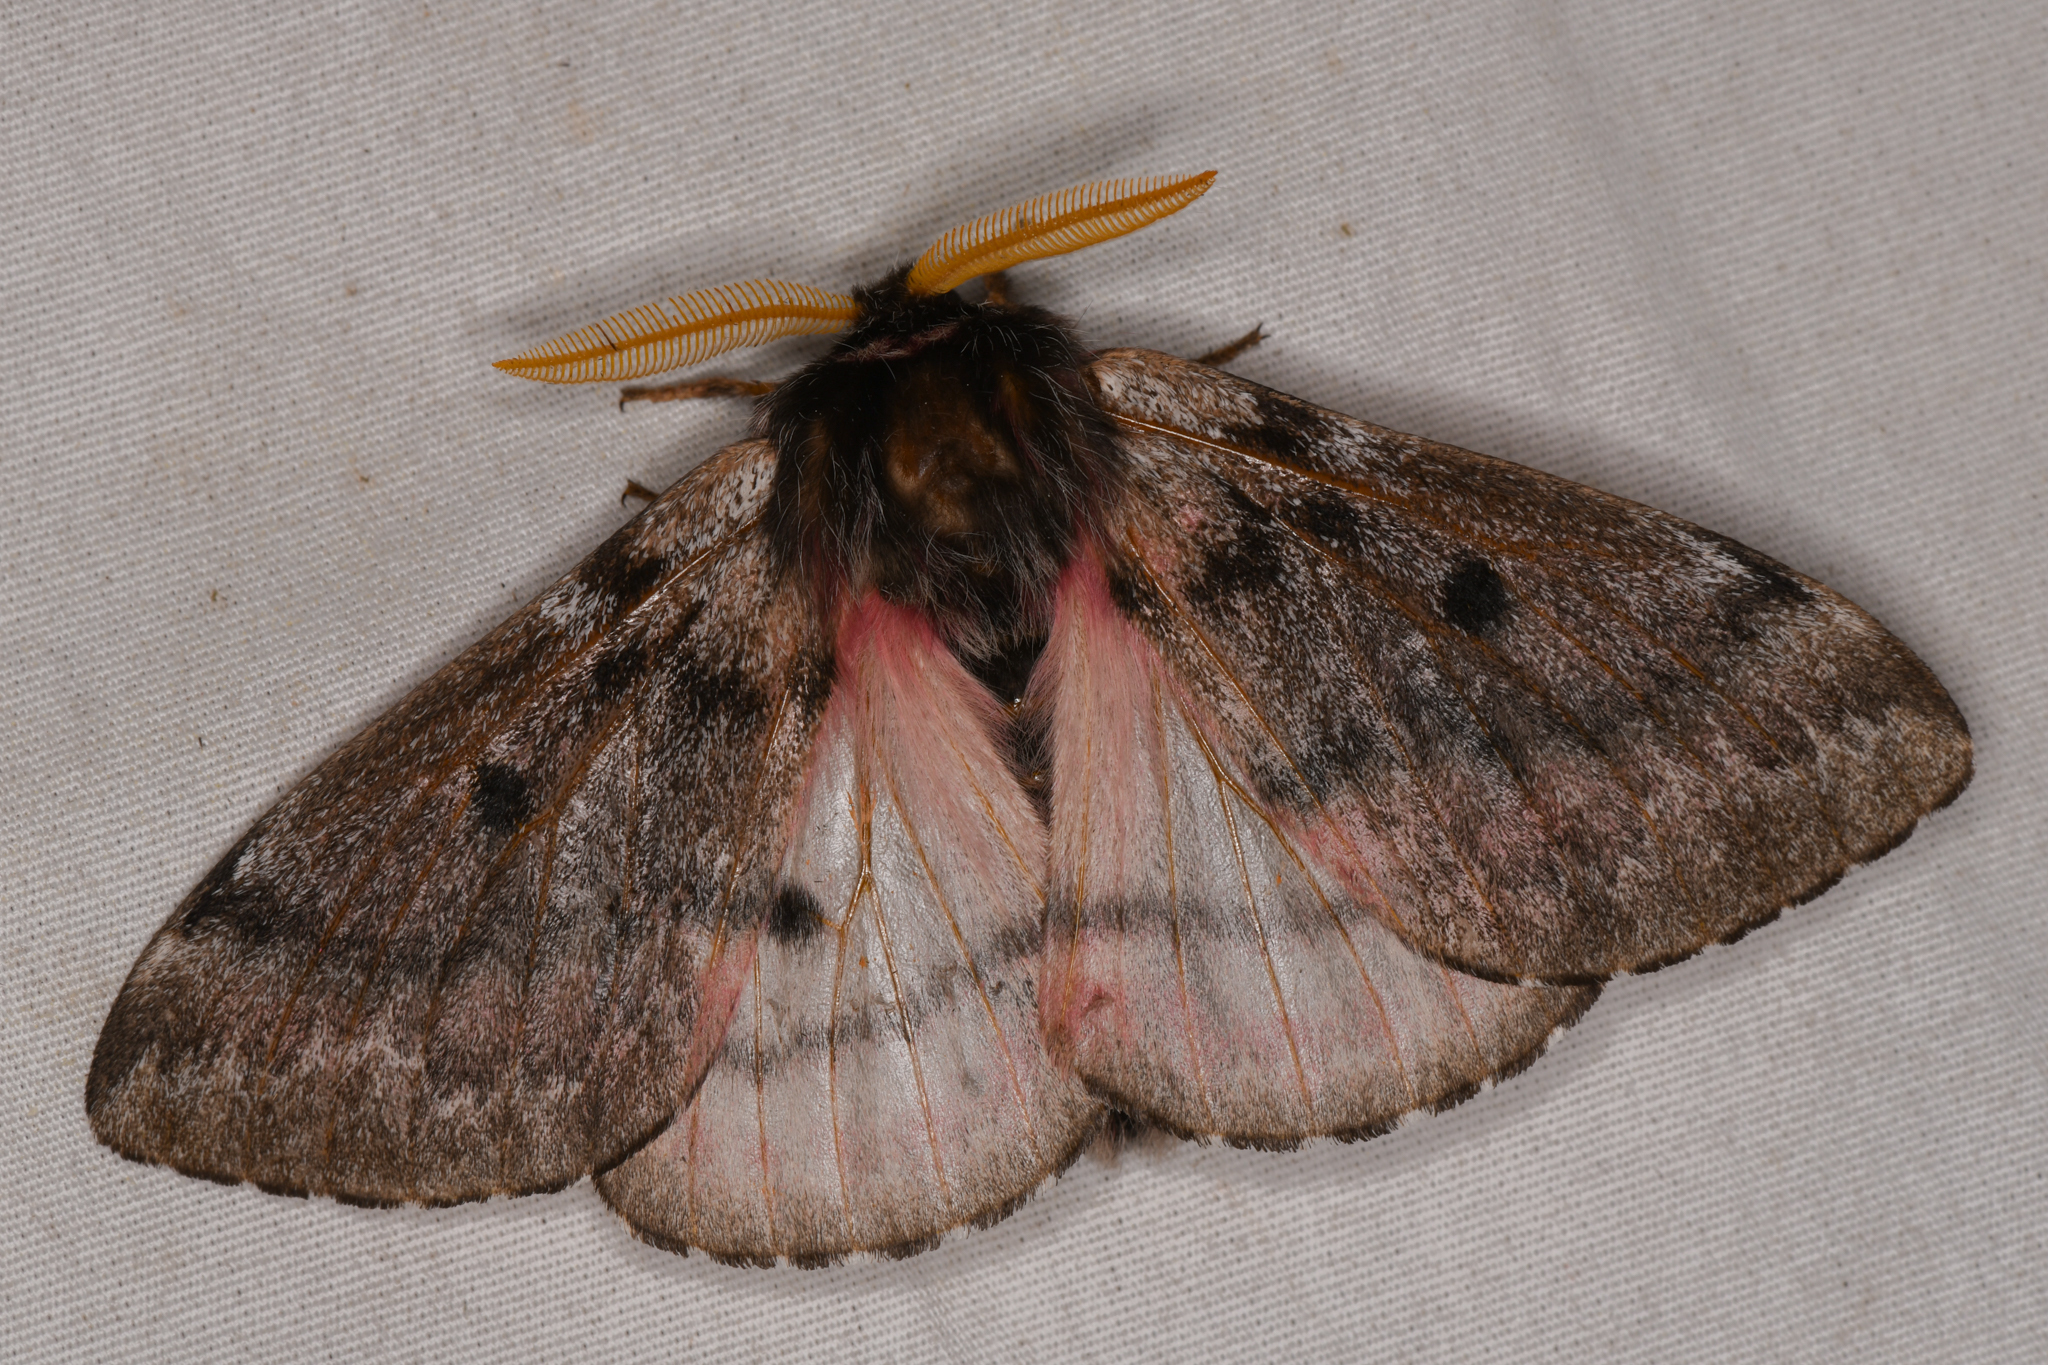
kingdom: Animalia
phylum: Arthropoda
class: Insecta
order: Lepidoptera
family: Saturniidae
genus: Coloradia
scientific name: Coloradia pandora
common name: Pandora pinemoth
